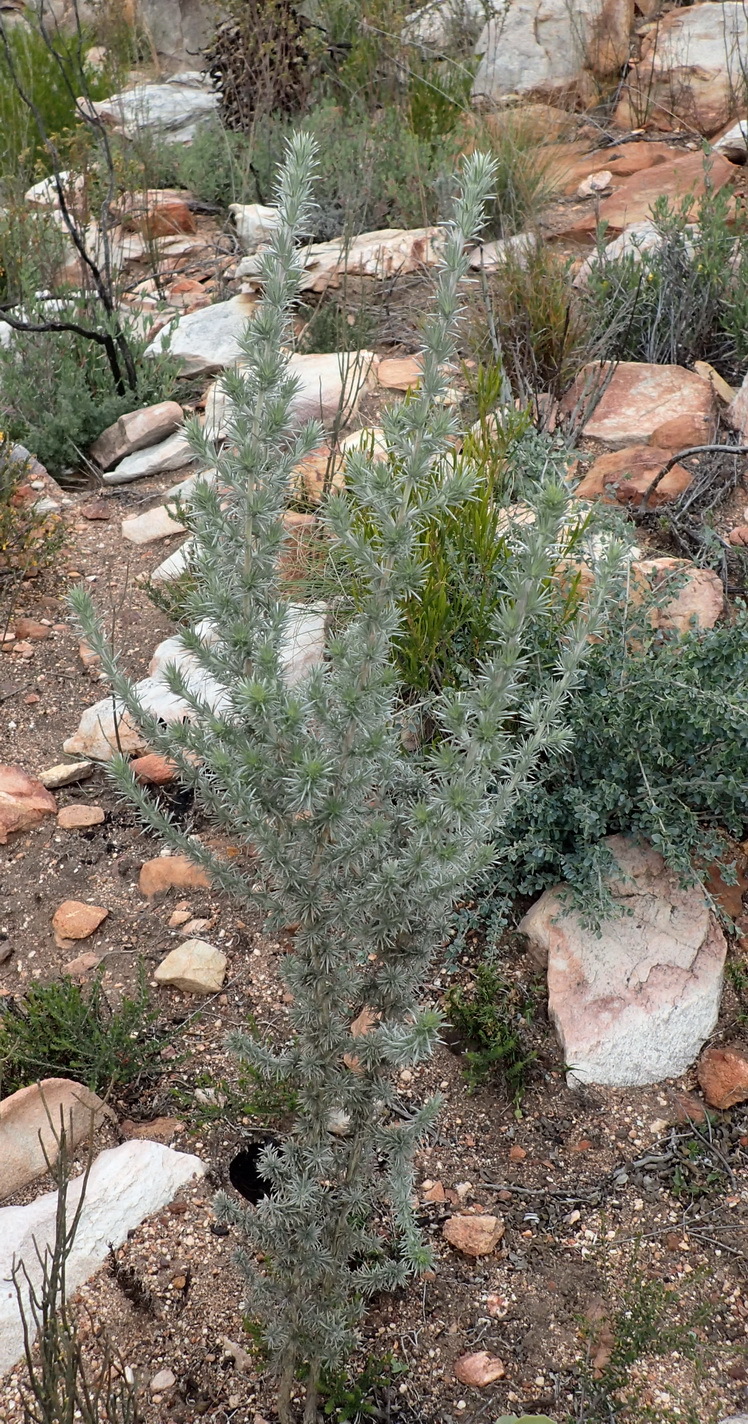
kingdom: Plantae
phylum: Tracheophyta
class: Magnoliopsida
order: Fabales
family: Fabaceae
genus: Aspalathus
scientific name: Aspalathus hystrix
